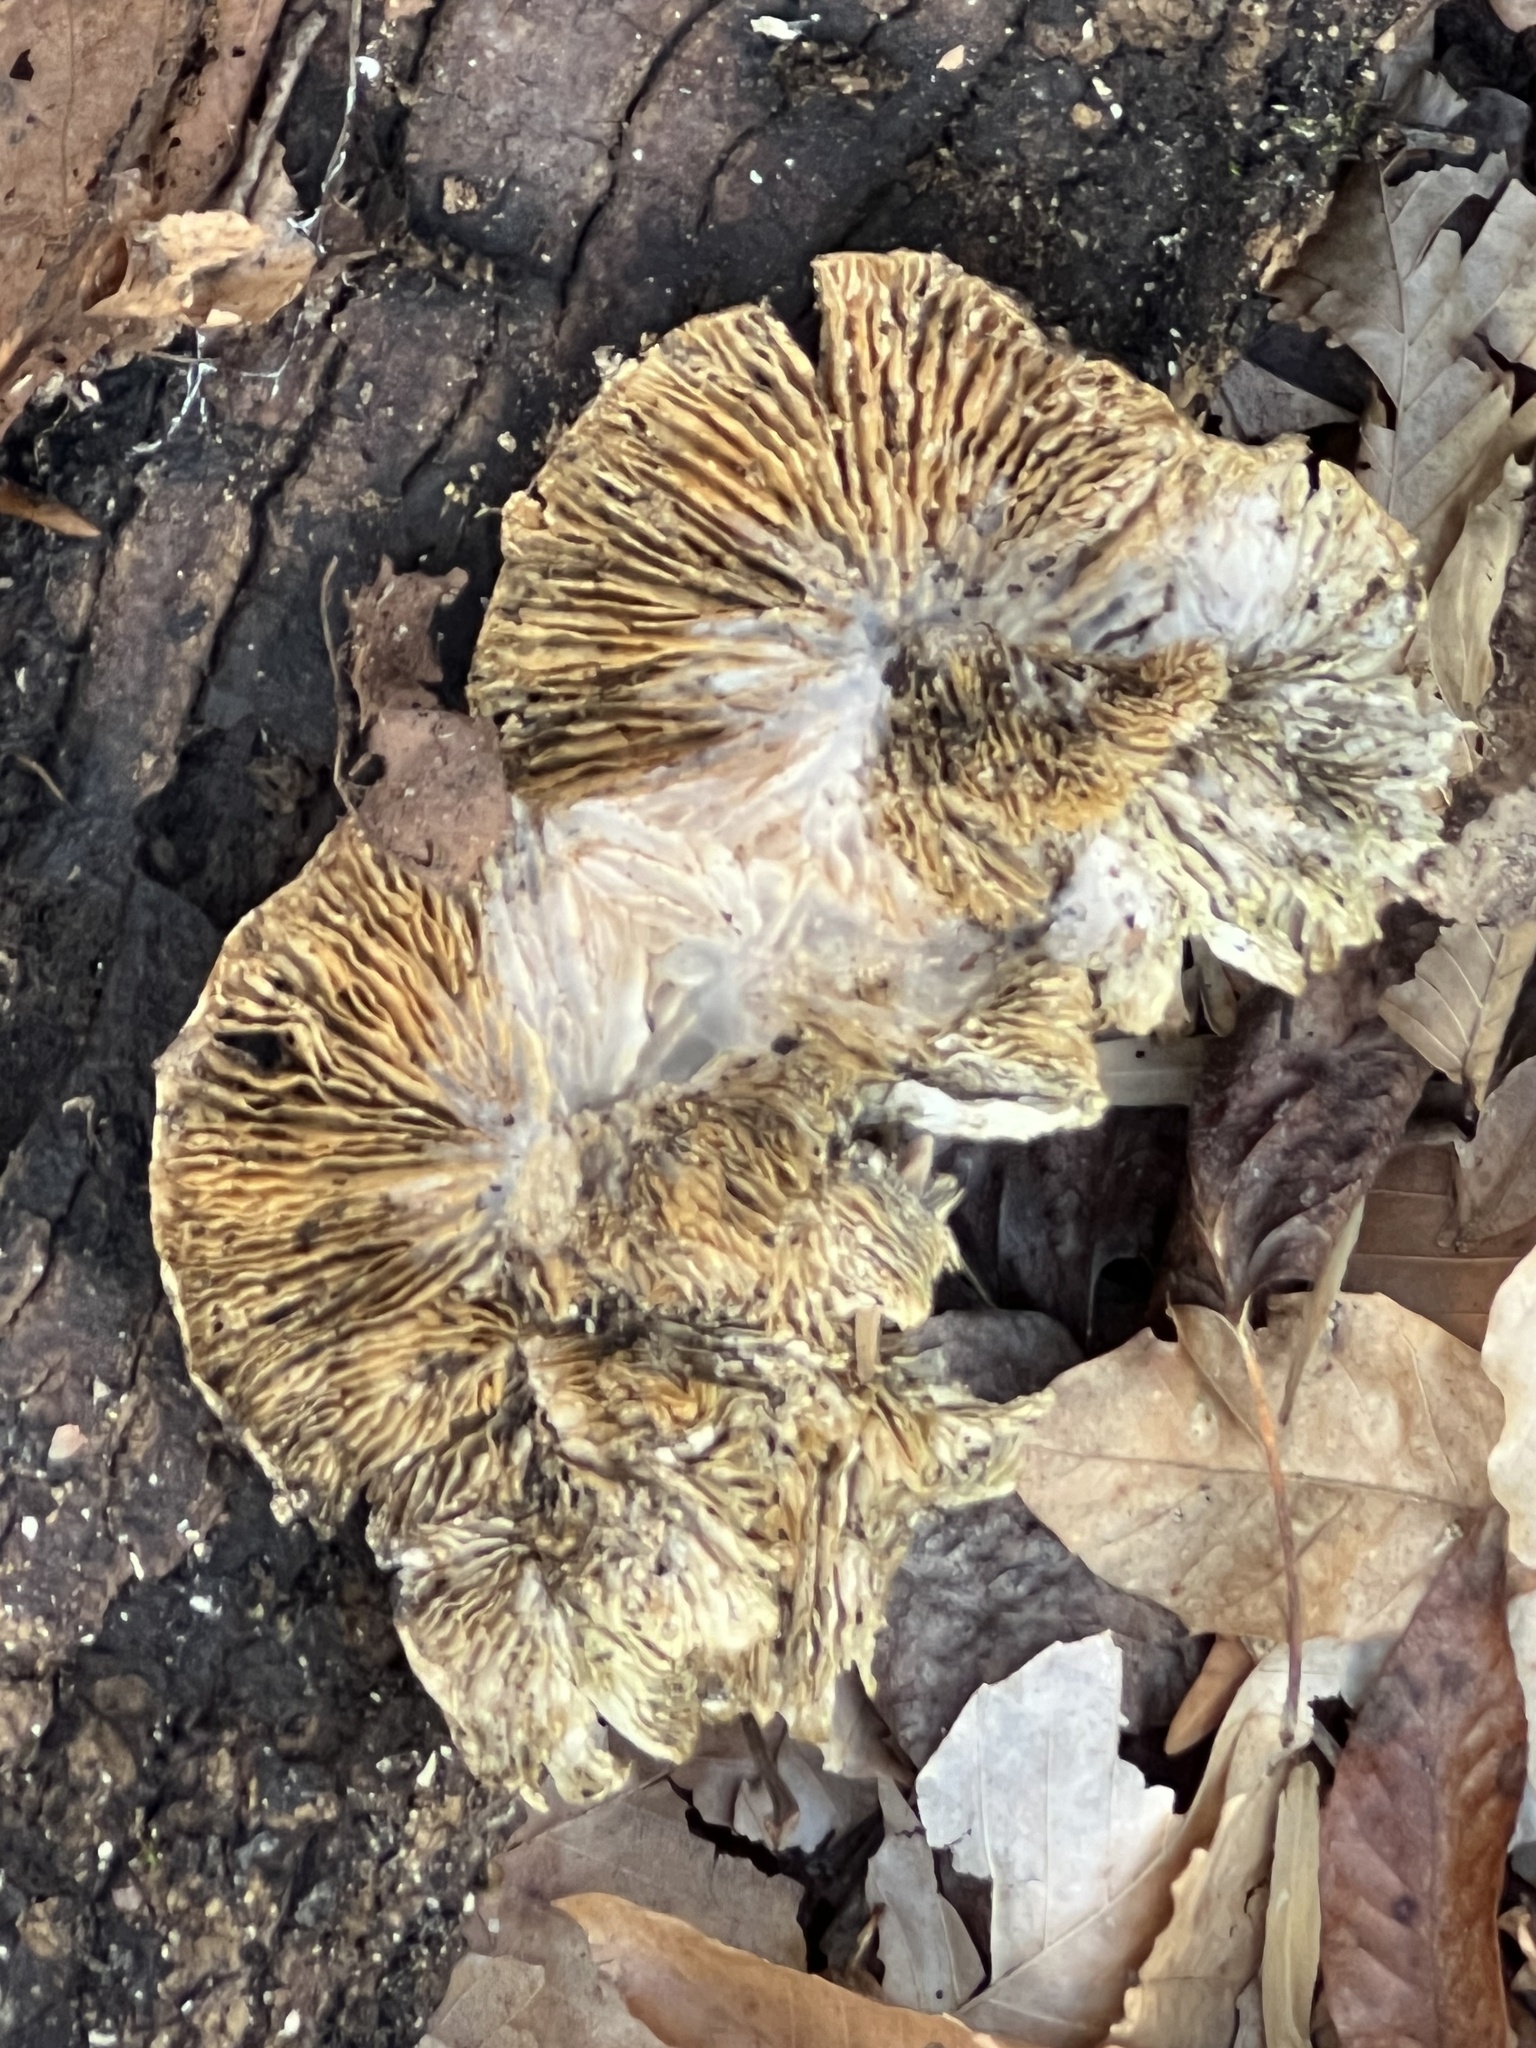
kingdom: Fungi
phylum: Basidiomycota
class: Agaricomycetes
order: Polyporales
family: Polyporaceae
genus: Lenzites
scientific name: Lenzites betulinus
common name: Birch mazegill
